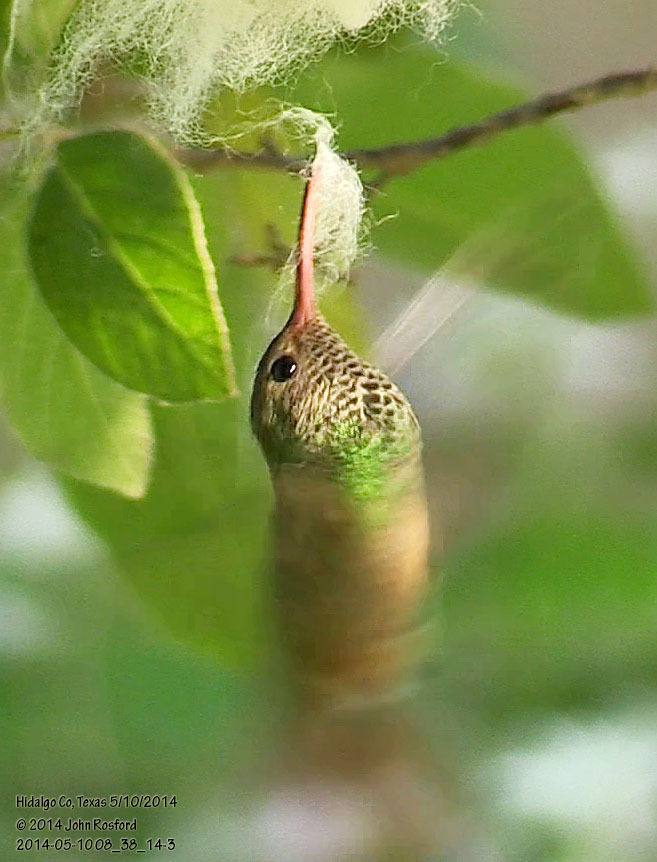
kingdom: Animalia
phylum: Chordata
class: Aves
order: Apodiformes
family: Trochilidae
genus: Amazilia
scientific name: Amazilia yucatanensis
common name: Buff-bellied hummingbird
